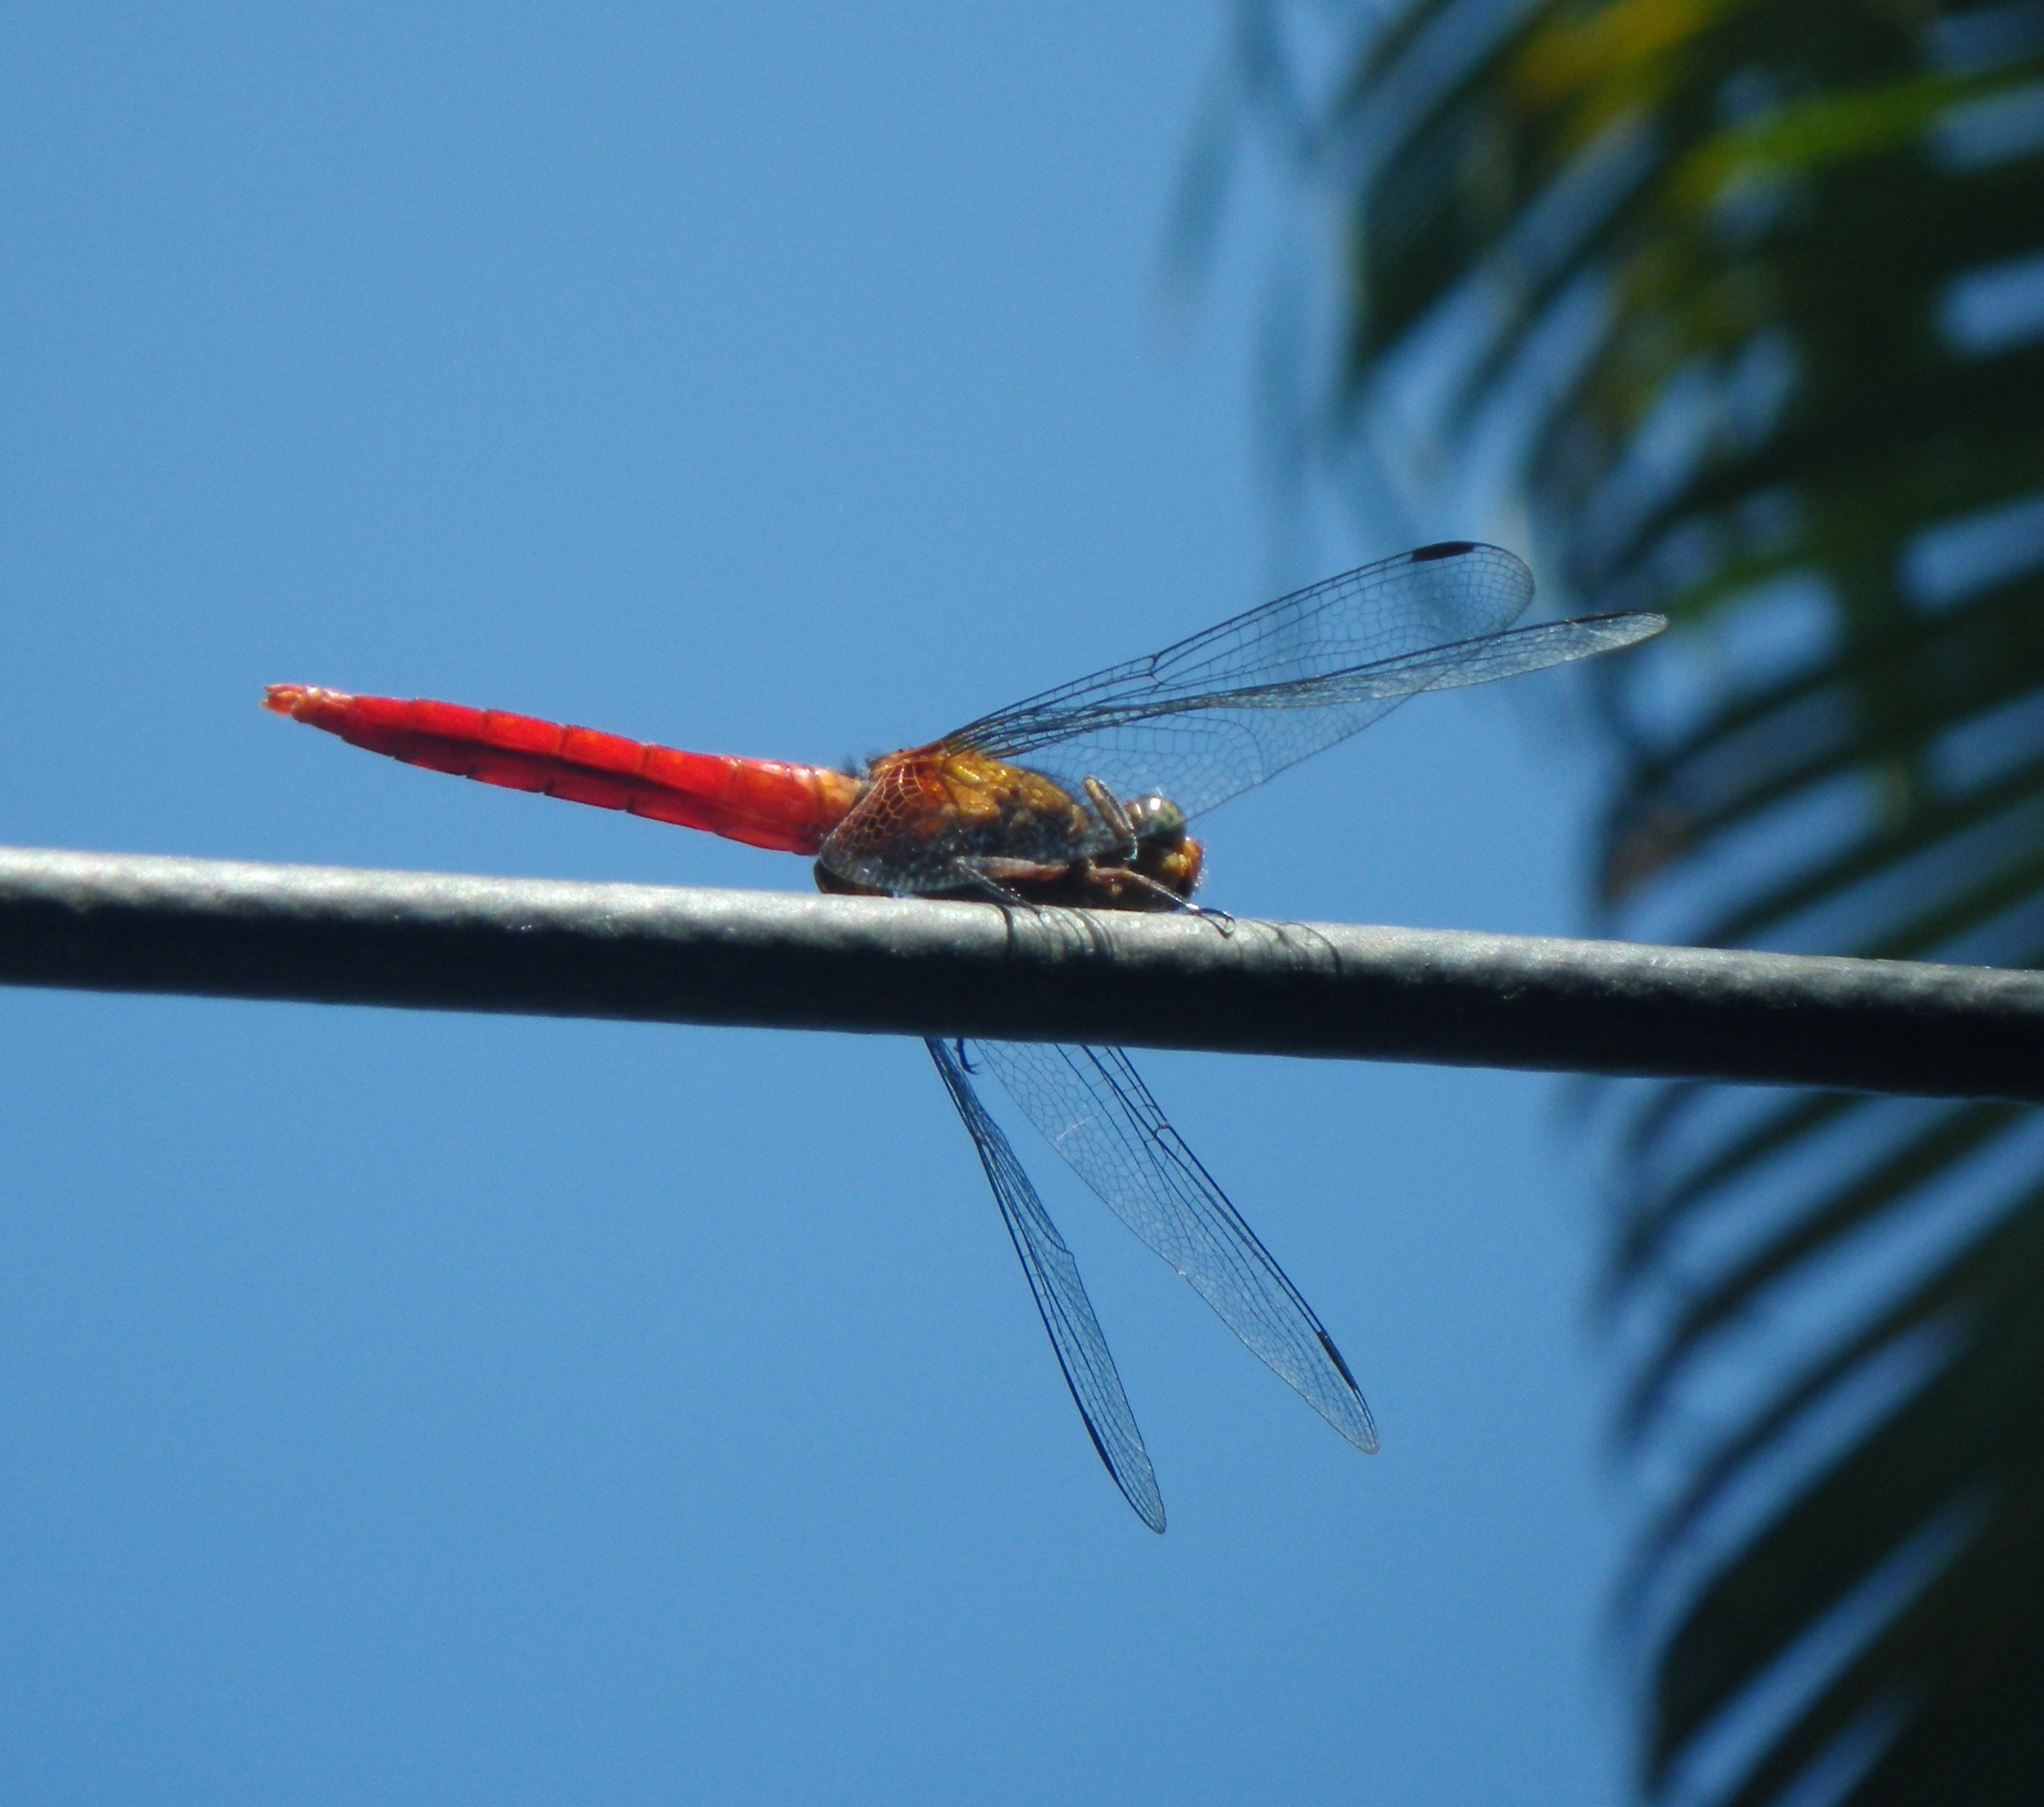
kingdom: Animalia
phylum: Arthropoda
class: Insecta
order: Odonata
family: Libellulidae
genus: Orthetrum
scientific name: Orthetrum testaceum
